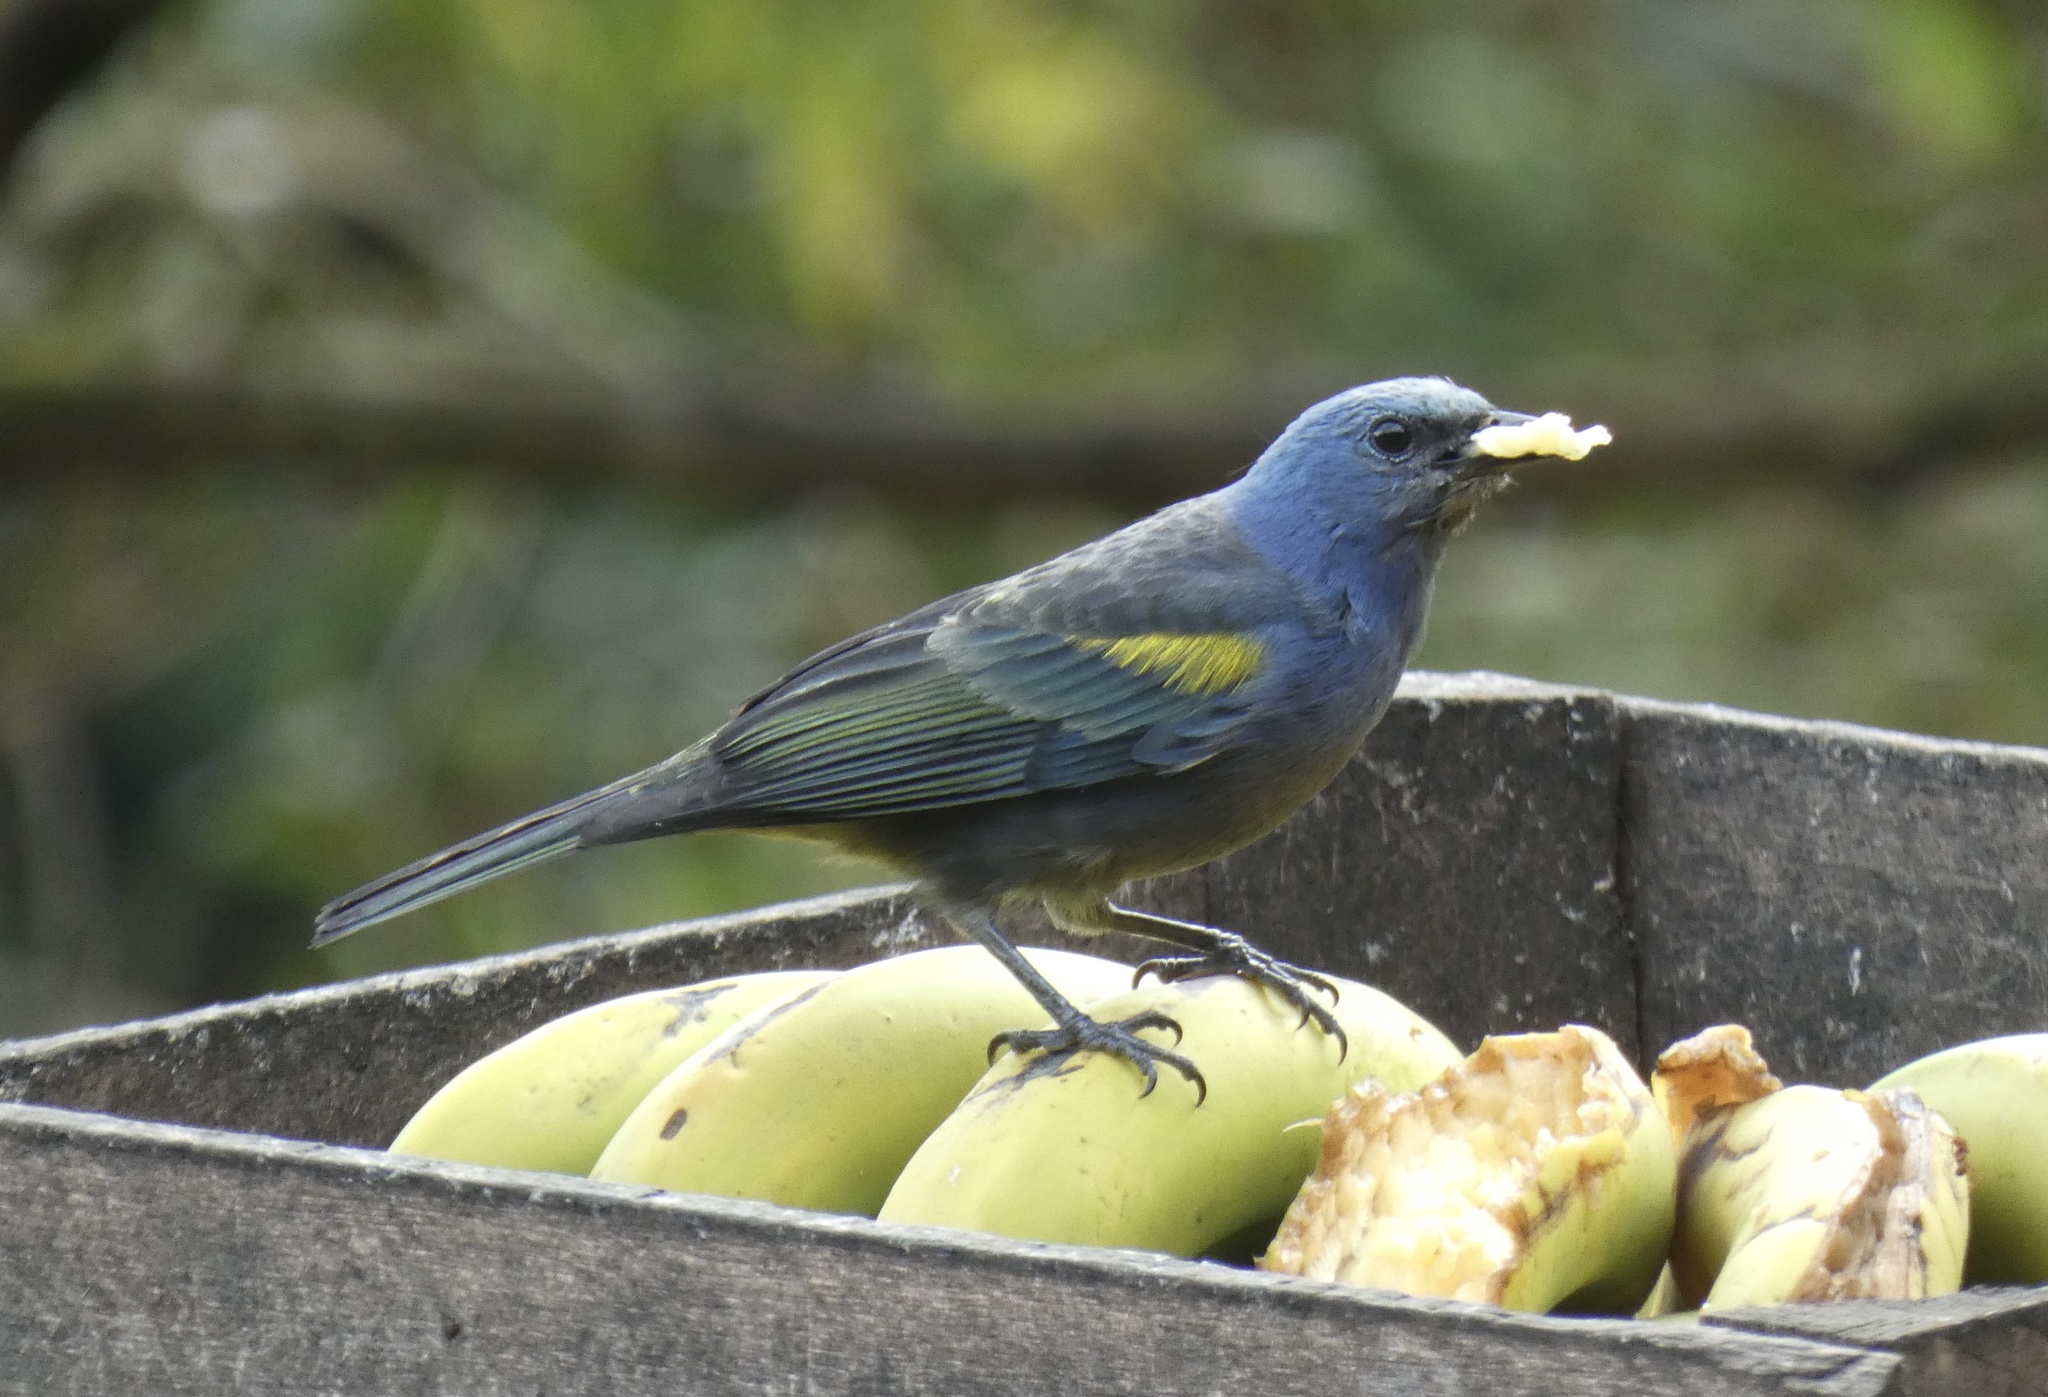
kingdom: Animalia
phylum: Chordata
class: Aves
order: Passeriformes
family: Thraupidae
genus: Thraupis
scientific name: Thraupis ornata
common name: Golden-chevroned tanager
